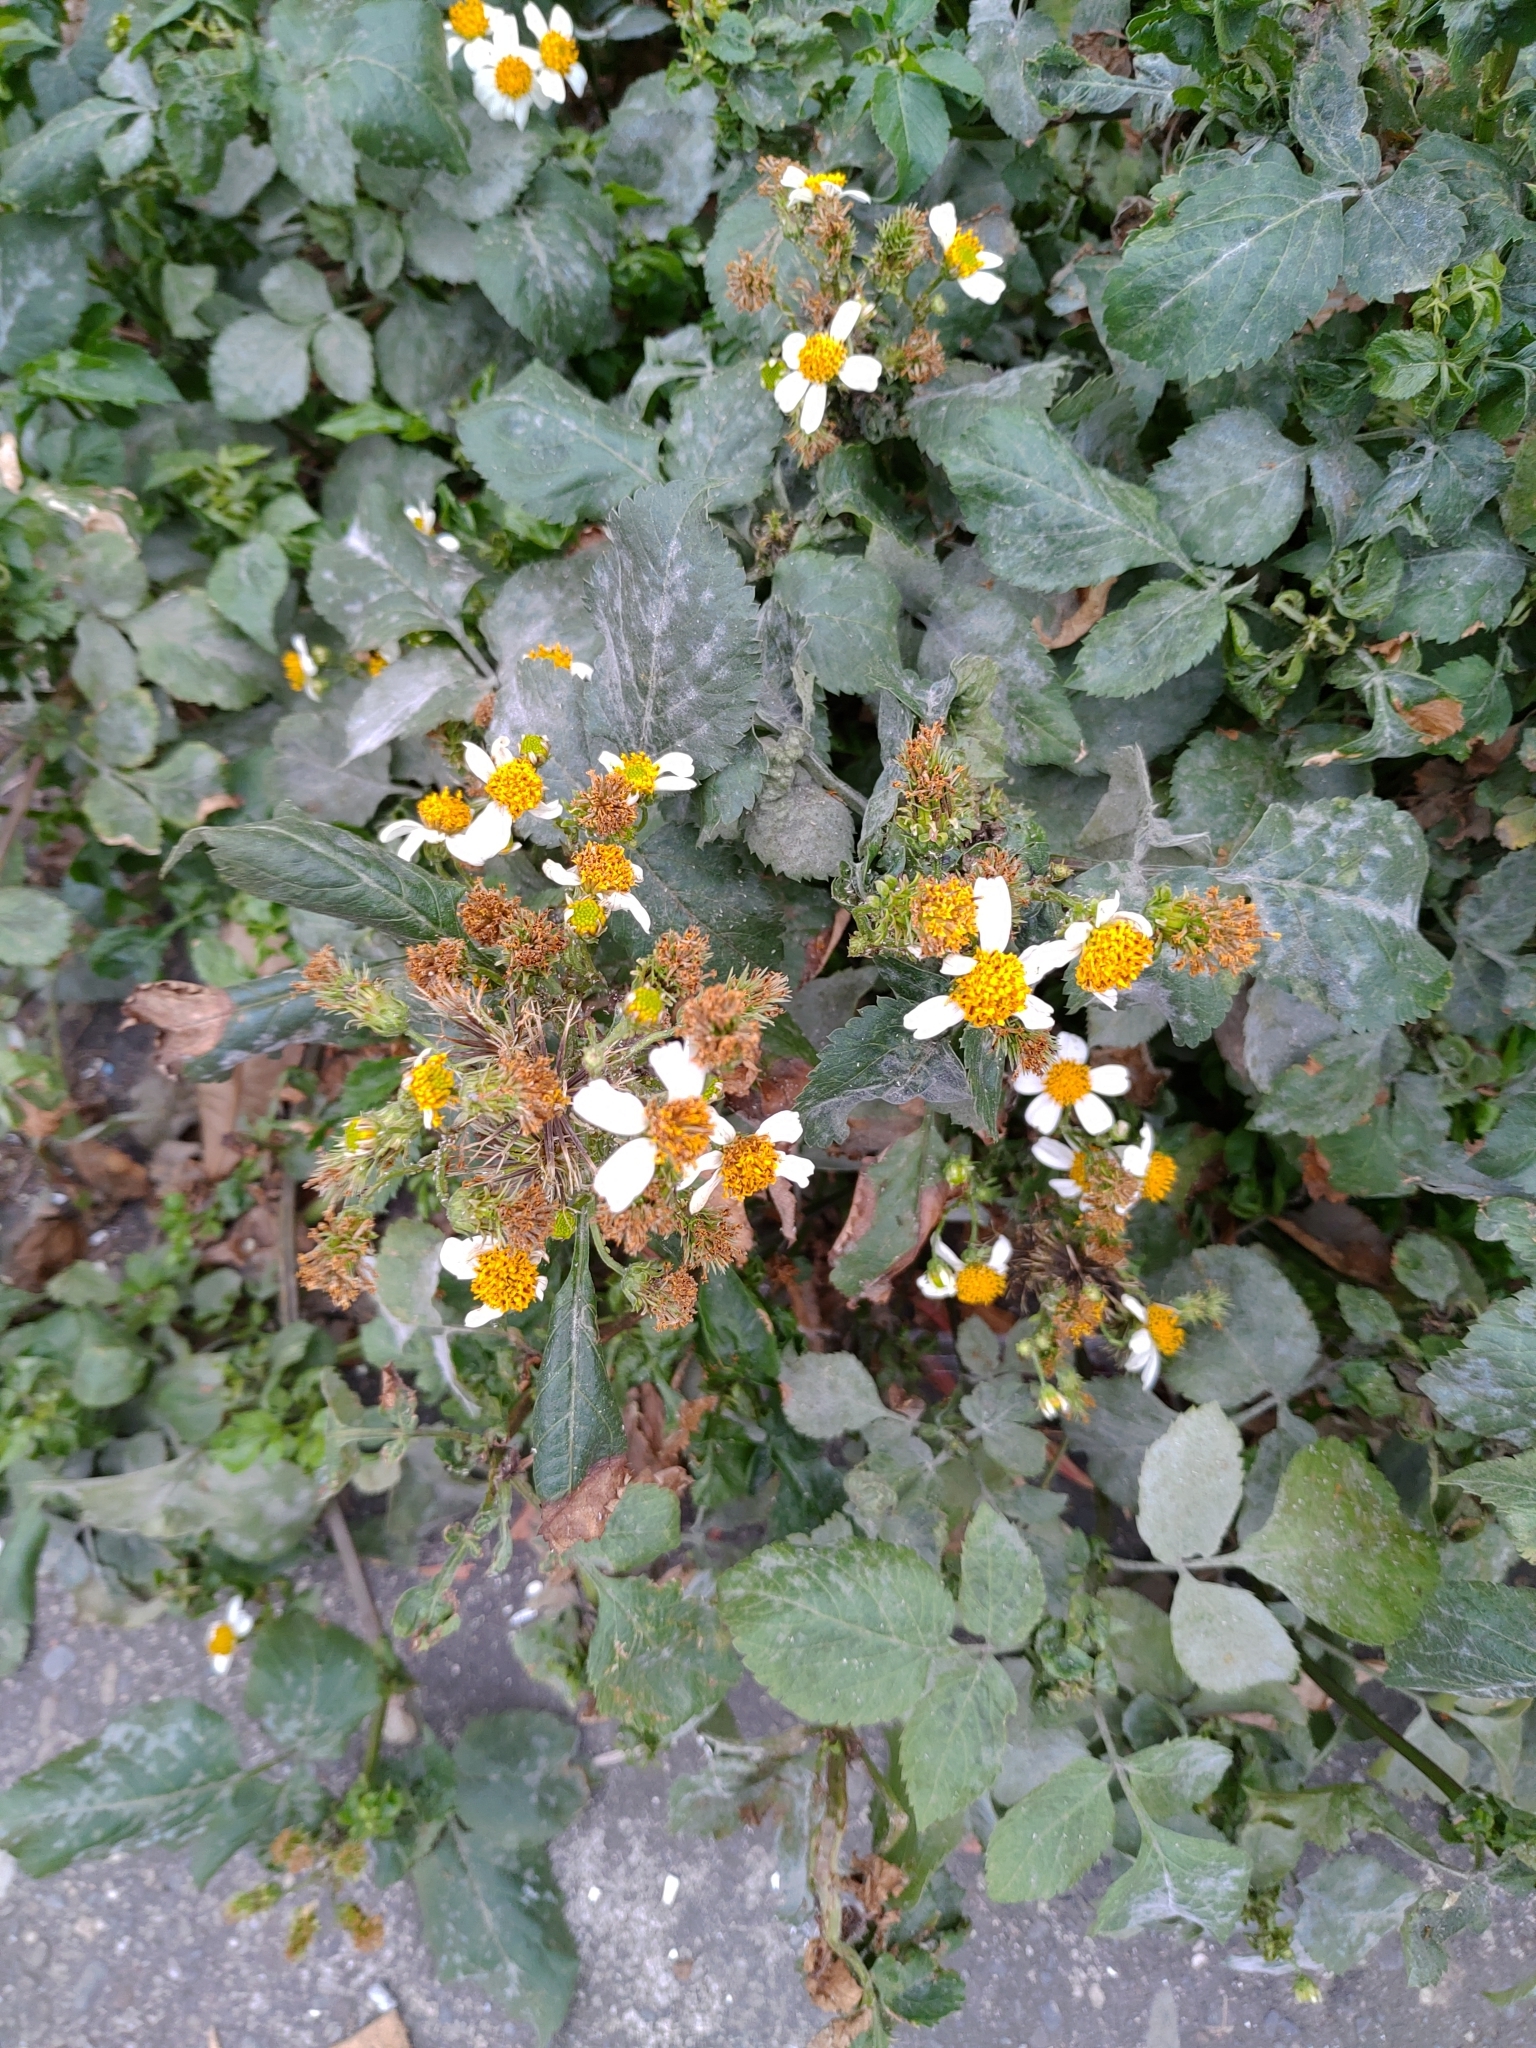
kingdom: Plantae
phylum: Tracheophyta
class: Magnoliopsida
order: Asterales
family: Asteraceae
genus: Bidens
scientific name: Bidens alba
